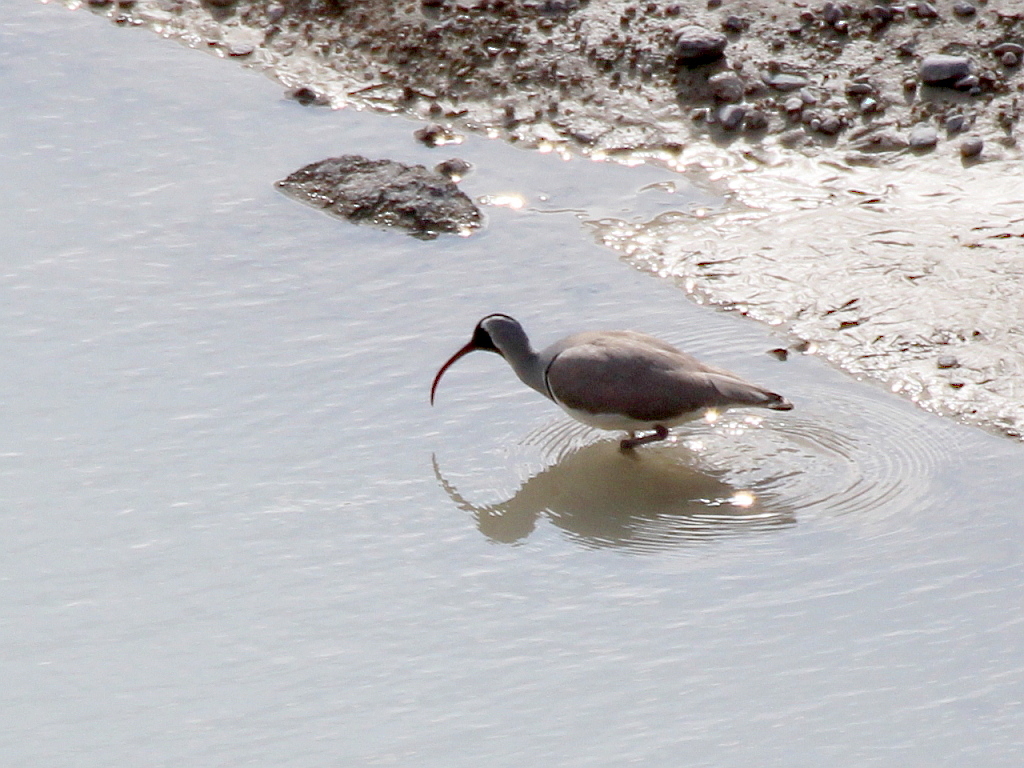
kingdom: Animalia
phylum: Chordata
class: Aves
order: Charadriiformes
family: Ibidorhynchidae
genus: Ibidorhyncha
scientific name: Ibidorhyncha struthersii
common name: Ibisbill
